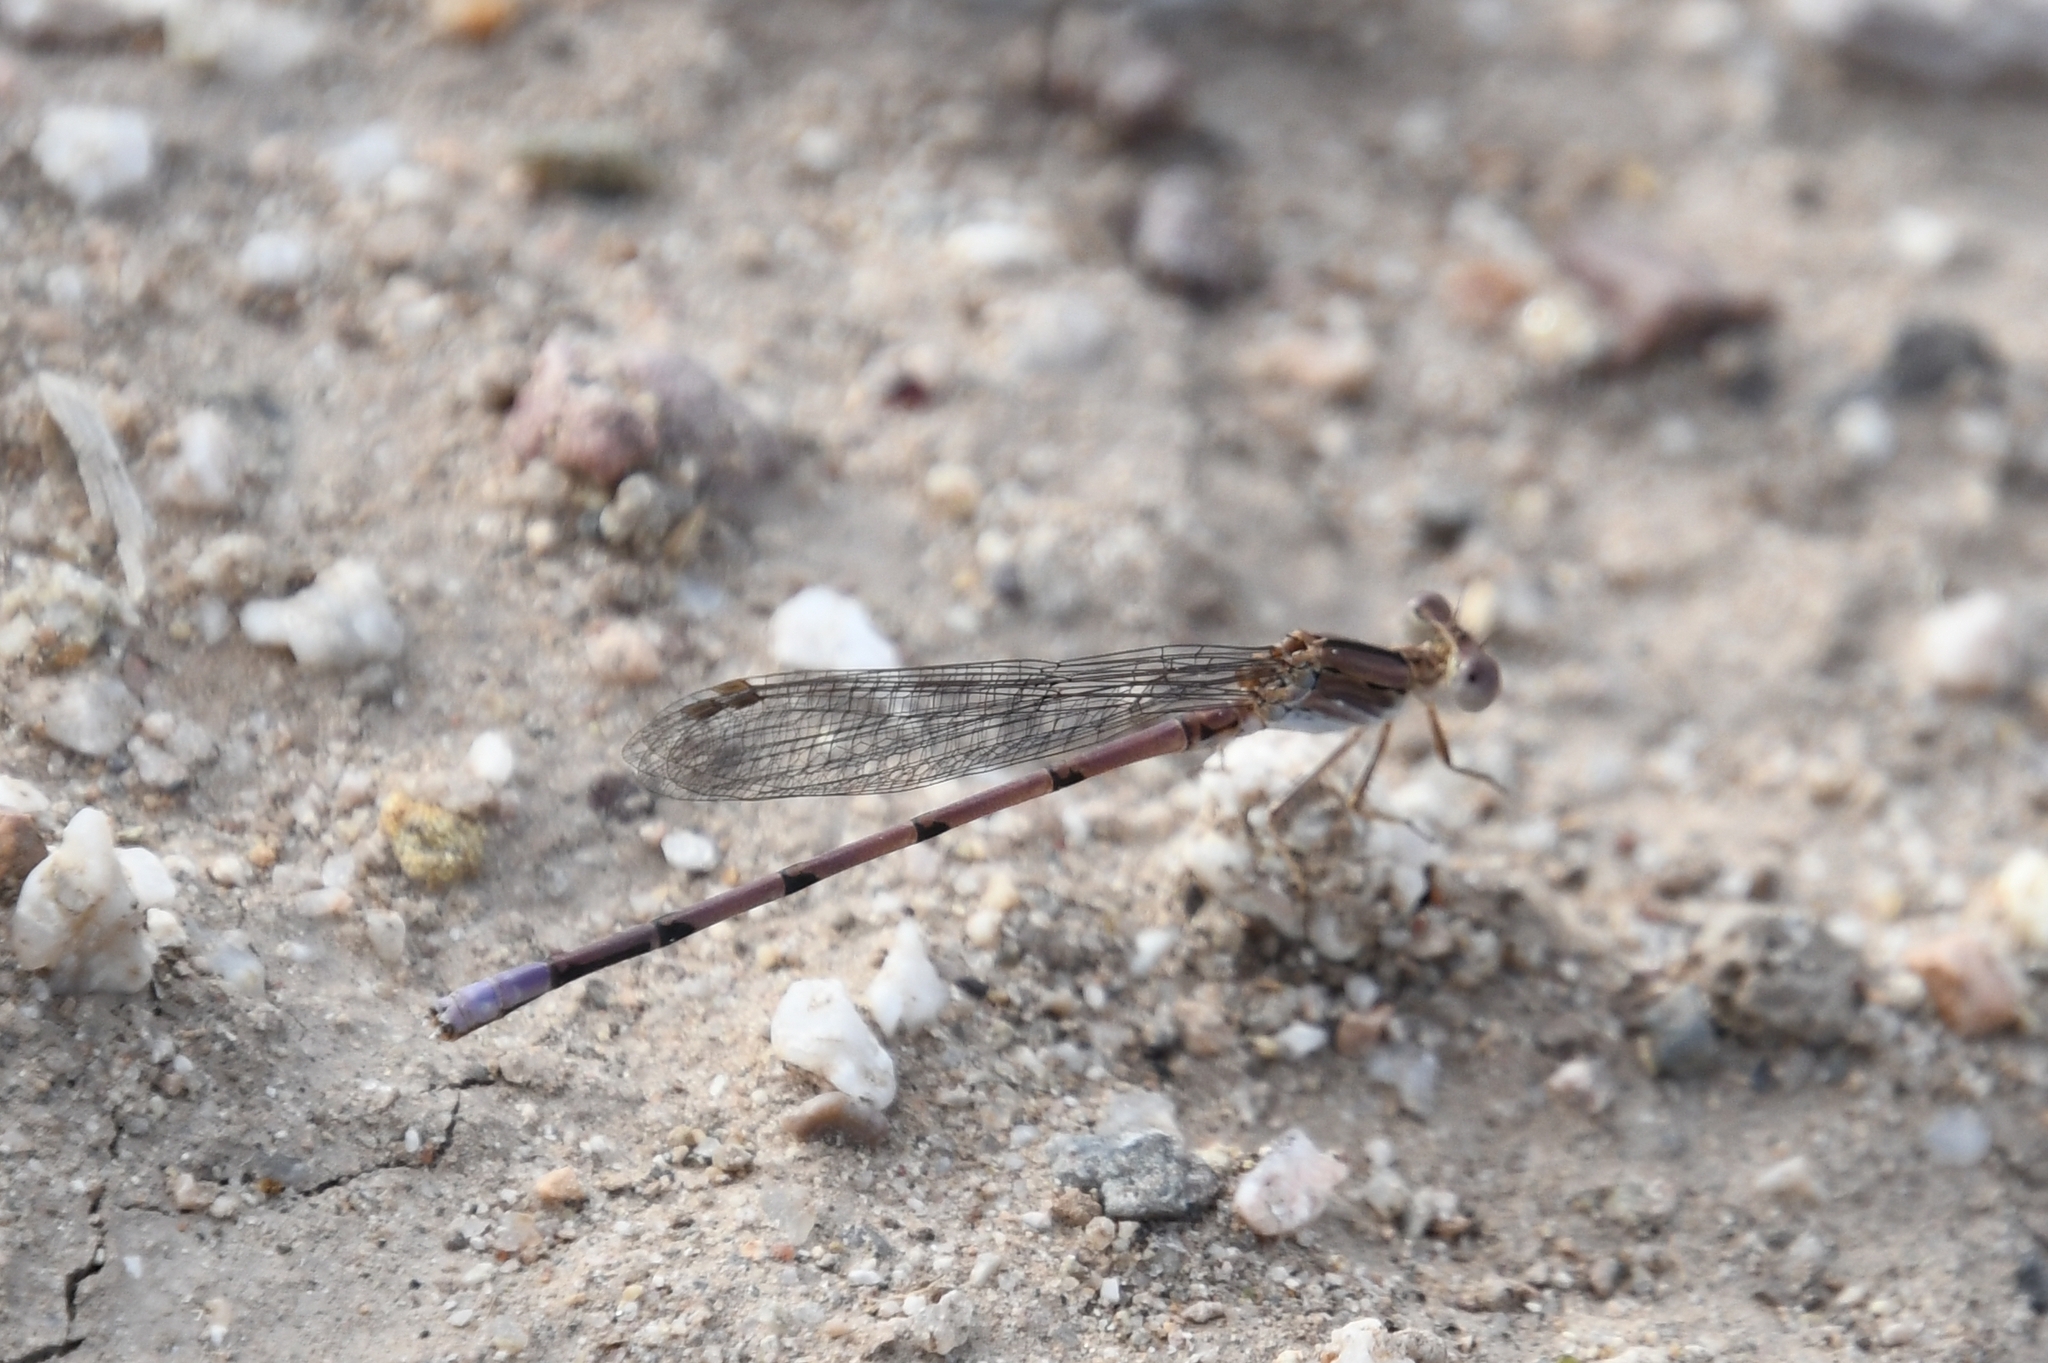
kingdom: Animalia
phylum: Arthropoda
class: Insecta
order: Odonata
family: Coenagrionidae
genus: Argia
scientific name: Argia pallens
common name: Amethyst dancer
